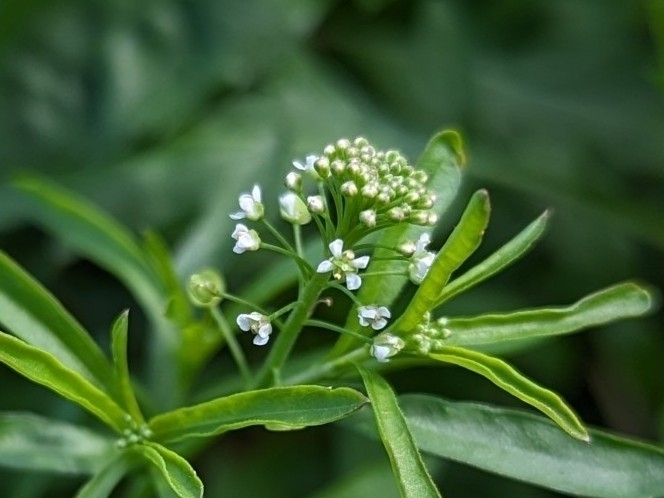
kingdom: Plantae
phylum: Tracheophyta
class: Magnoliopsida
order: Brassicales
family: Brassicaceae
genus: Lepidium
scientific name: Lepidium virginicum
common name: Least pepperwort
